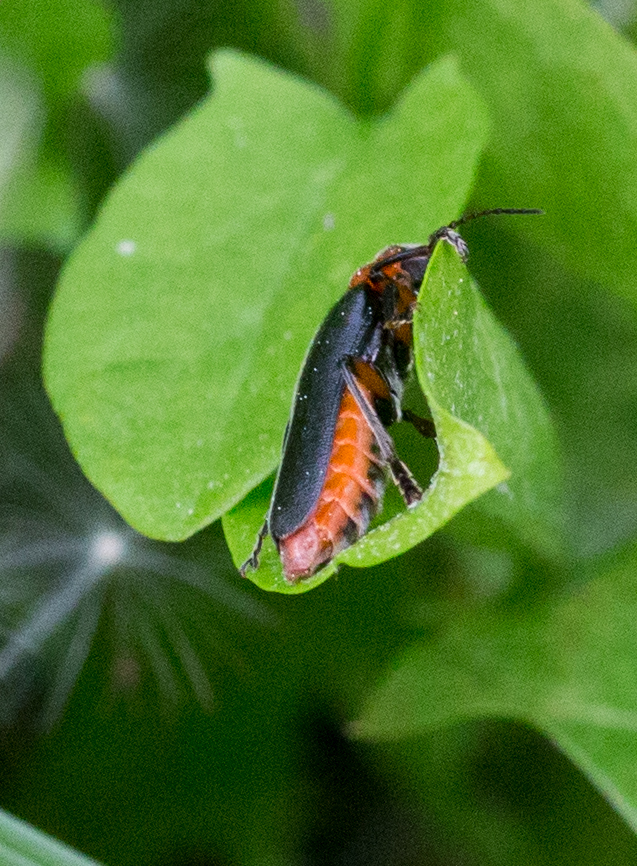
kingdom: Animalia
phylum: Arthropoda
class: Insecta
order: Coleoptera
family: Cantharidae
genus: Cantharis
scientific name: Cantharis rustica
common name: Soldier beetle
